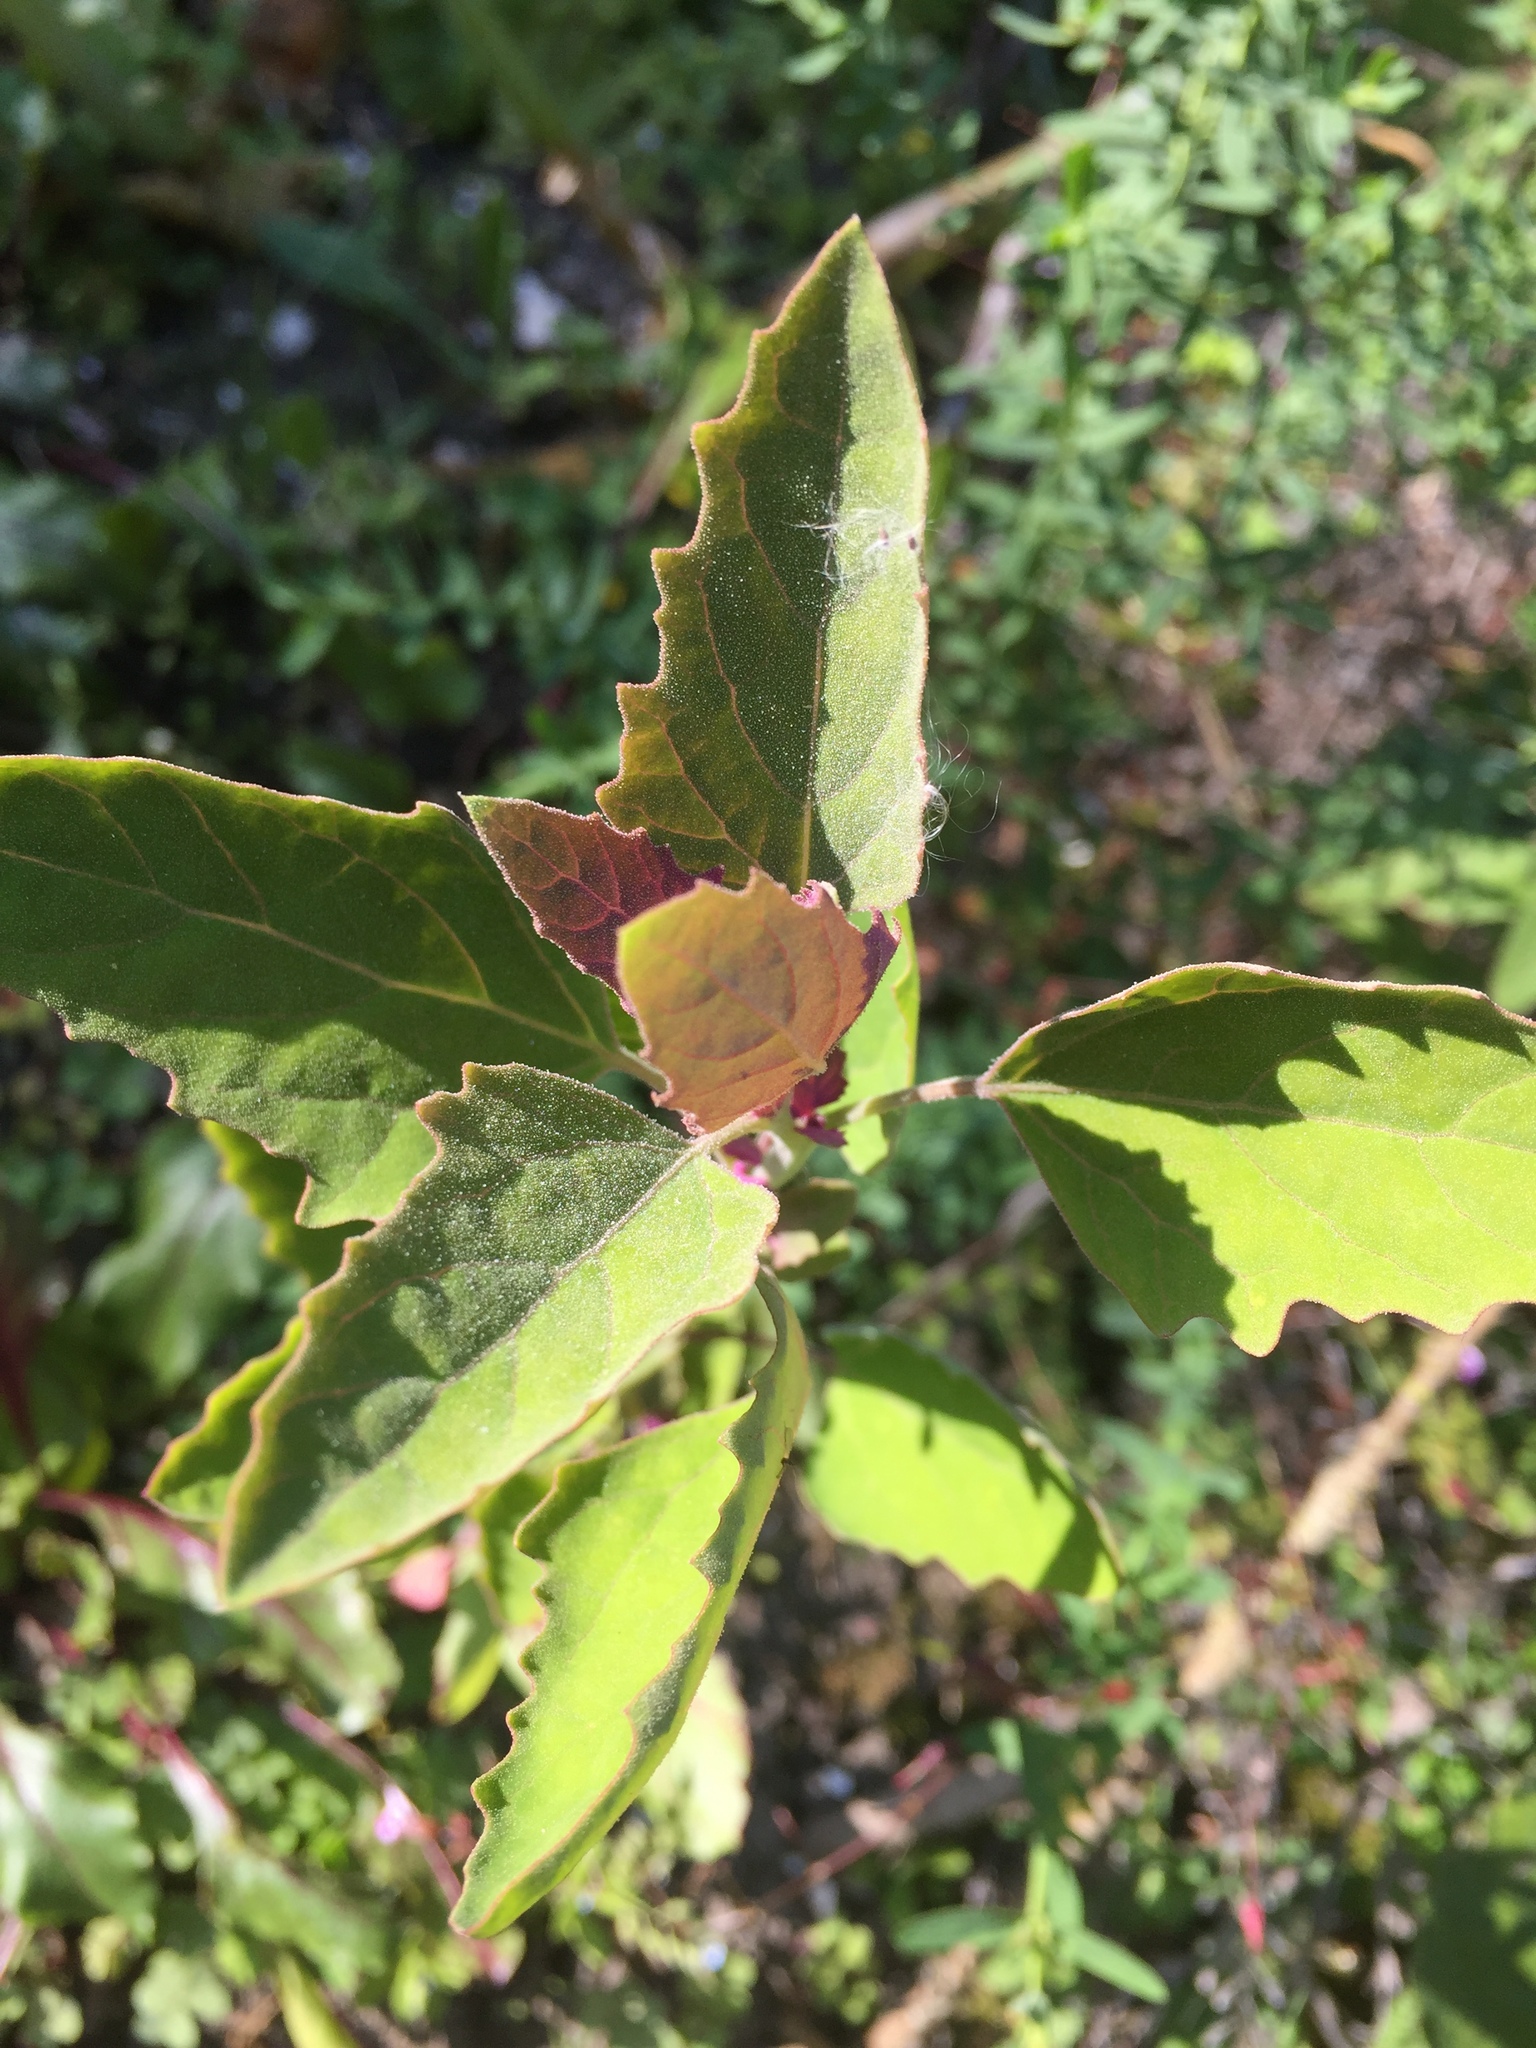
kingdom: Plantae
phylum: Tracheophyta
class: Magnoliopsida
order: Caryophyllales
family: Amaranthaceae
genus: Chenopodium
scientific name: Chenopodium giganteum
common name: Magentaspreen
